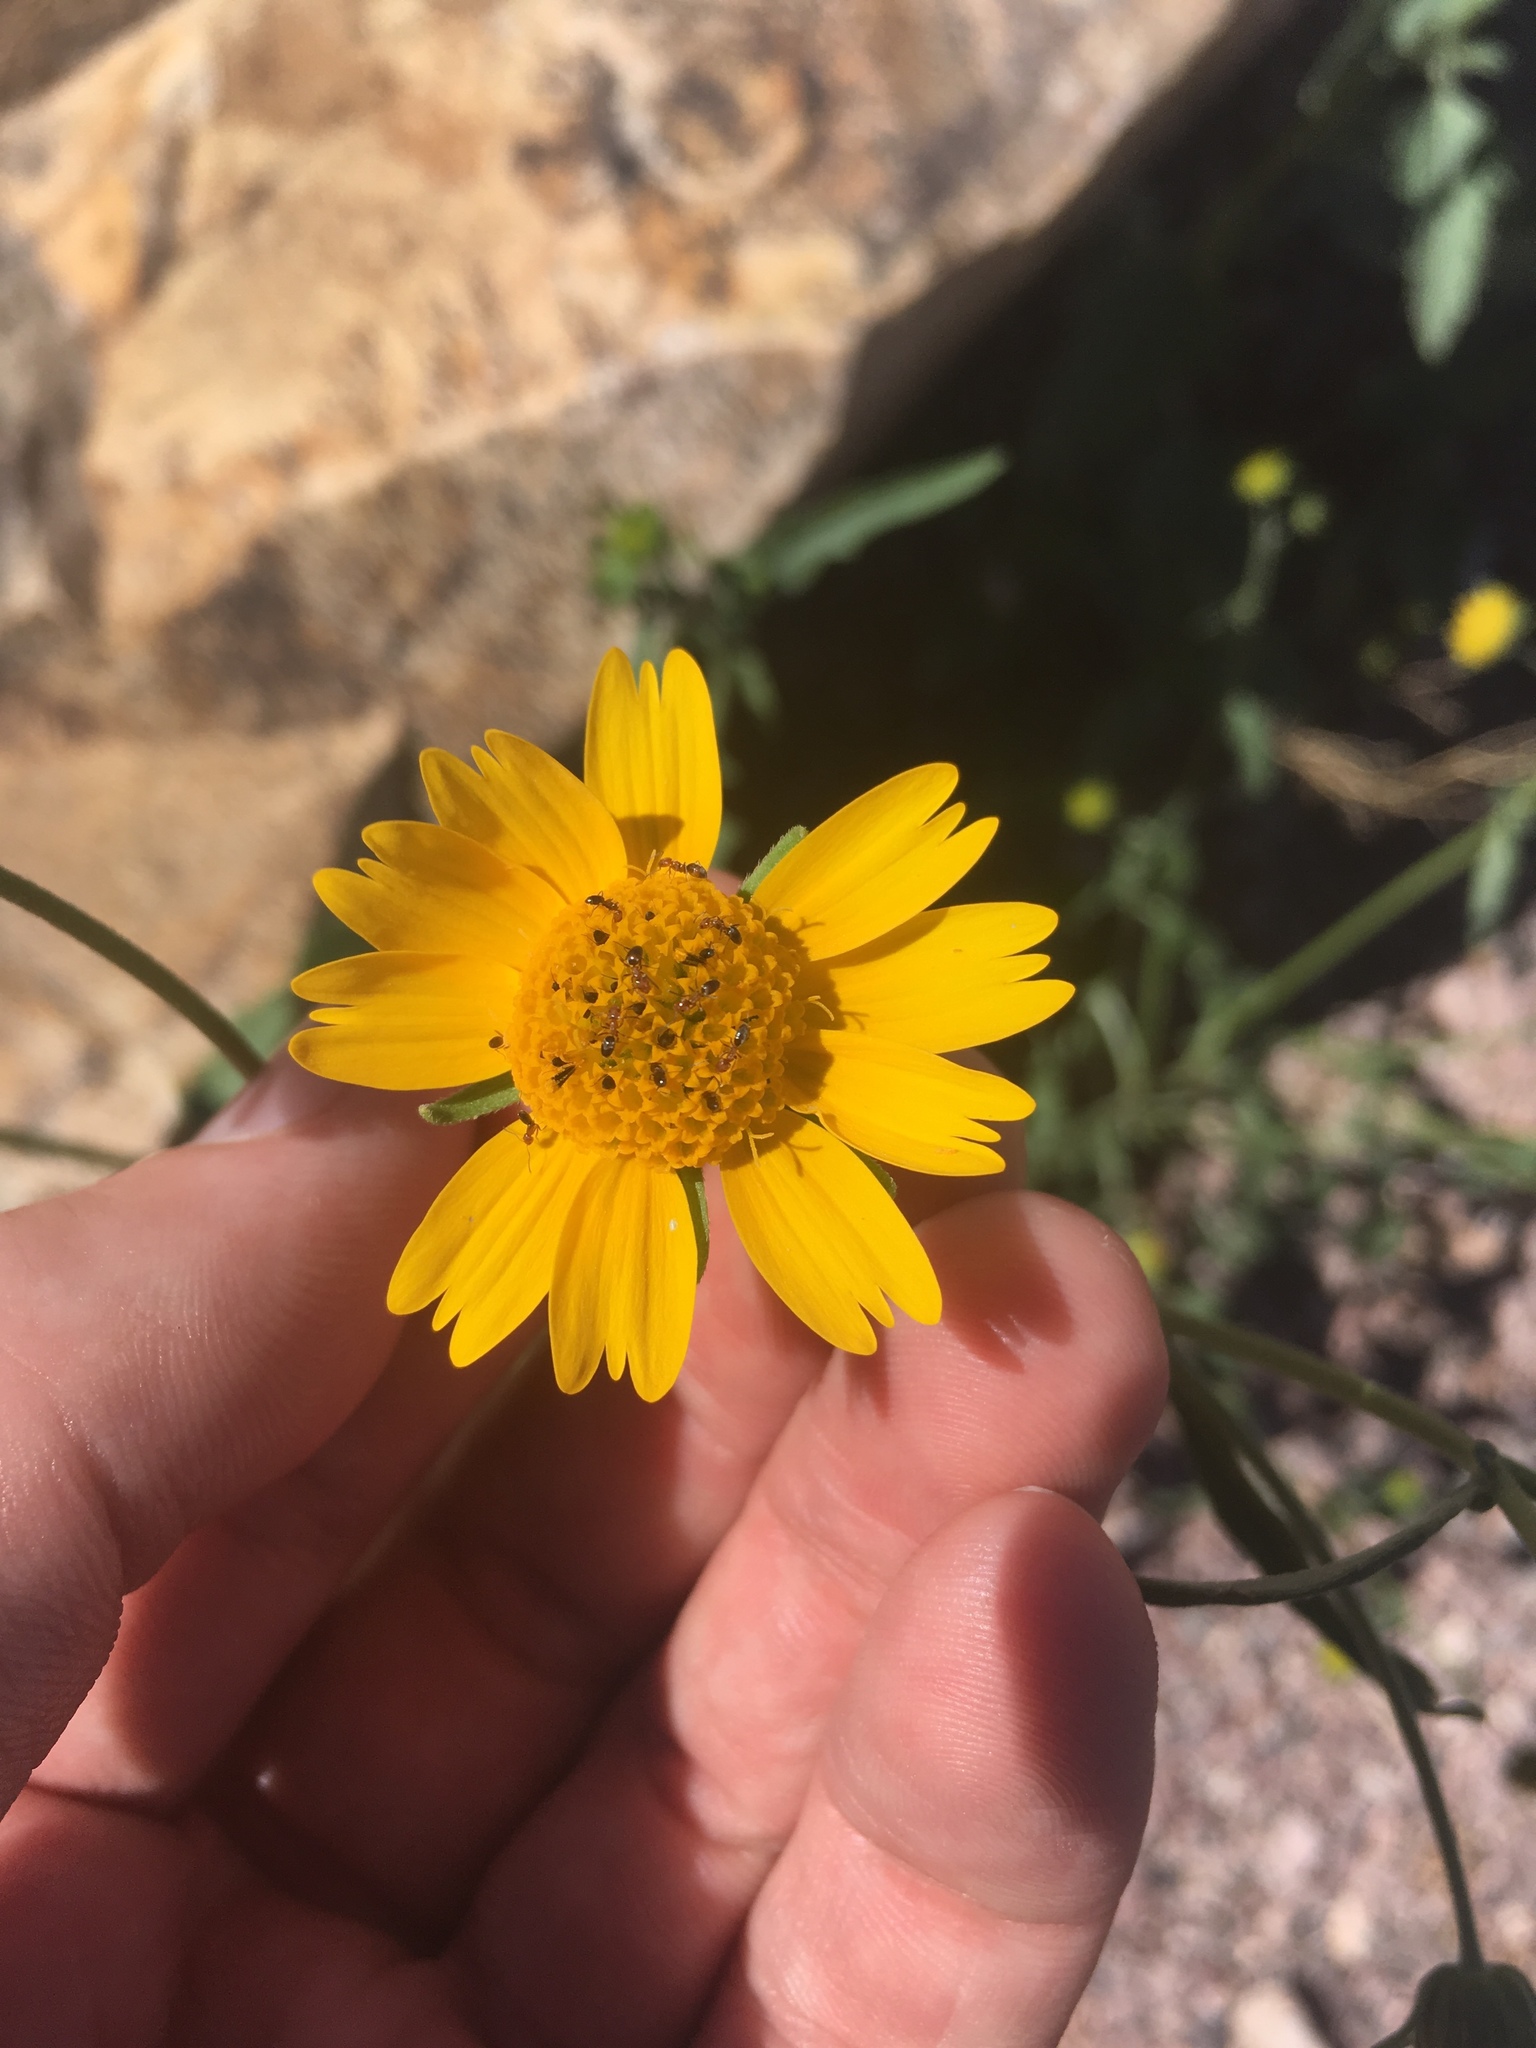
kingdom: Plantae
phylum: Tracheophyta
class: Magnoliopsida
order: Asterales
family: Asteraceae
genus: Verbesina
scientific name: Verbesina encelioides
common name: Golden crownbeard
